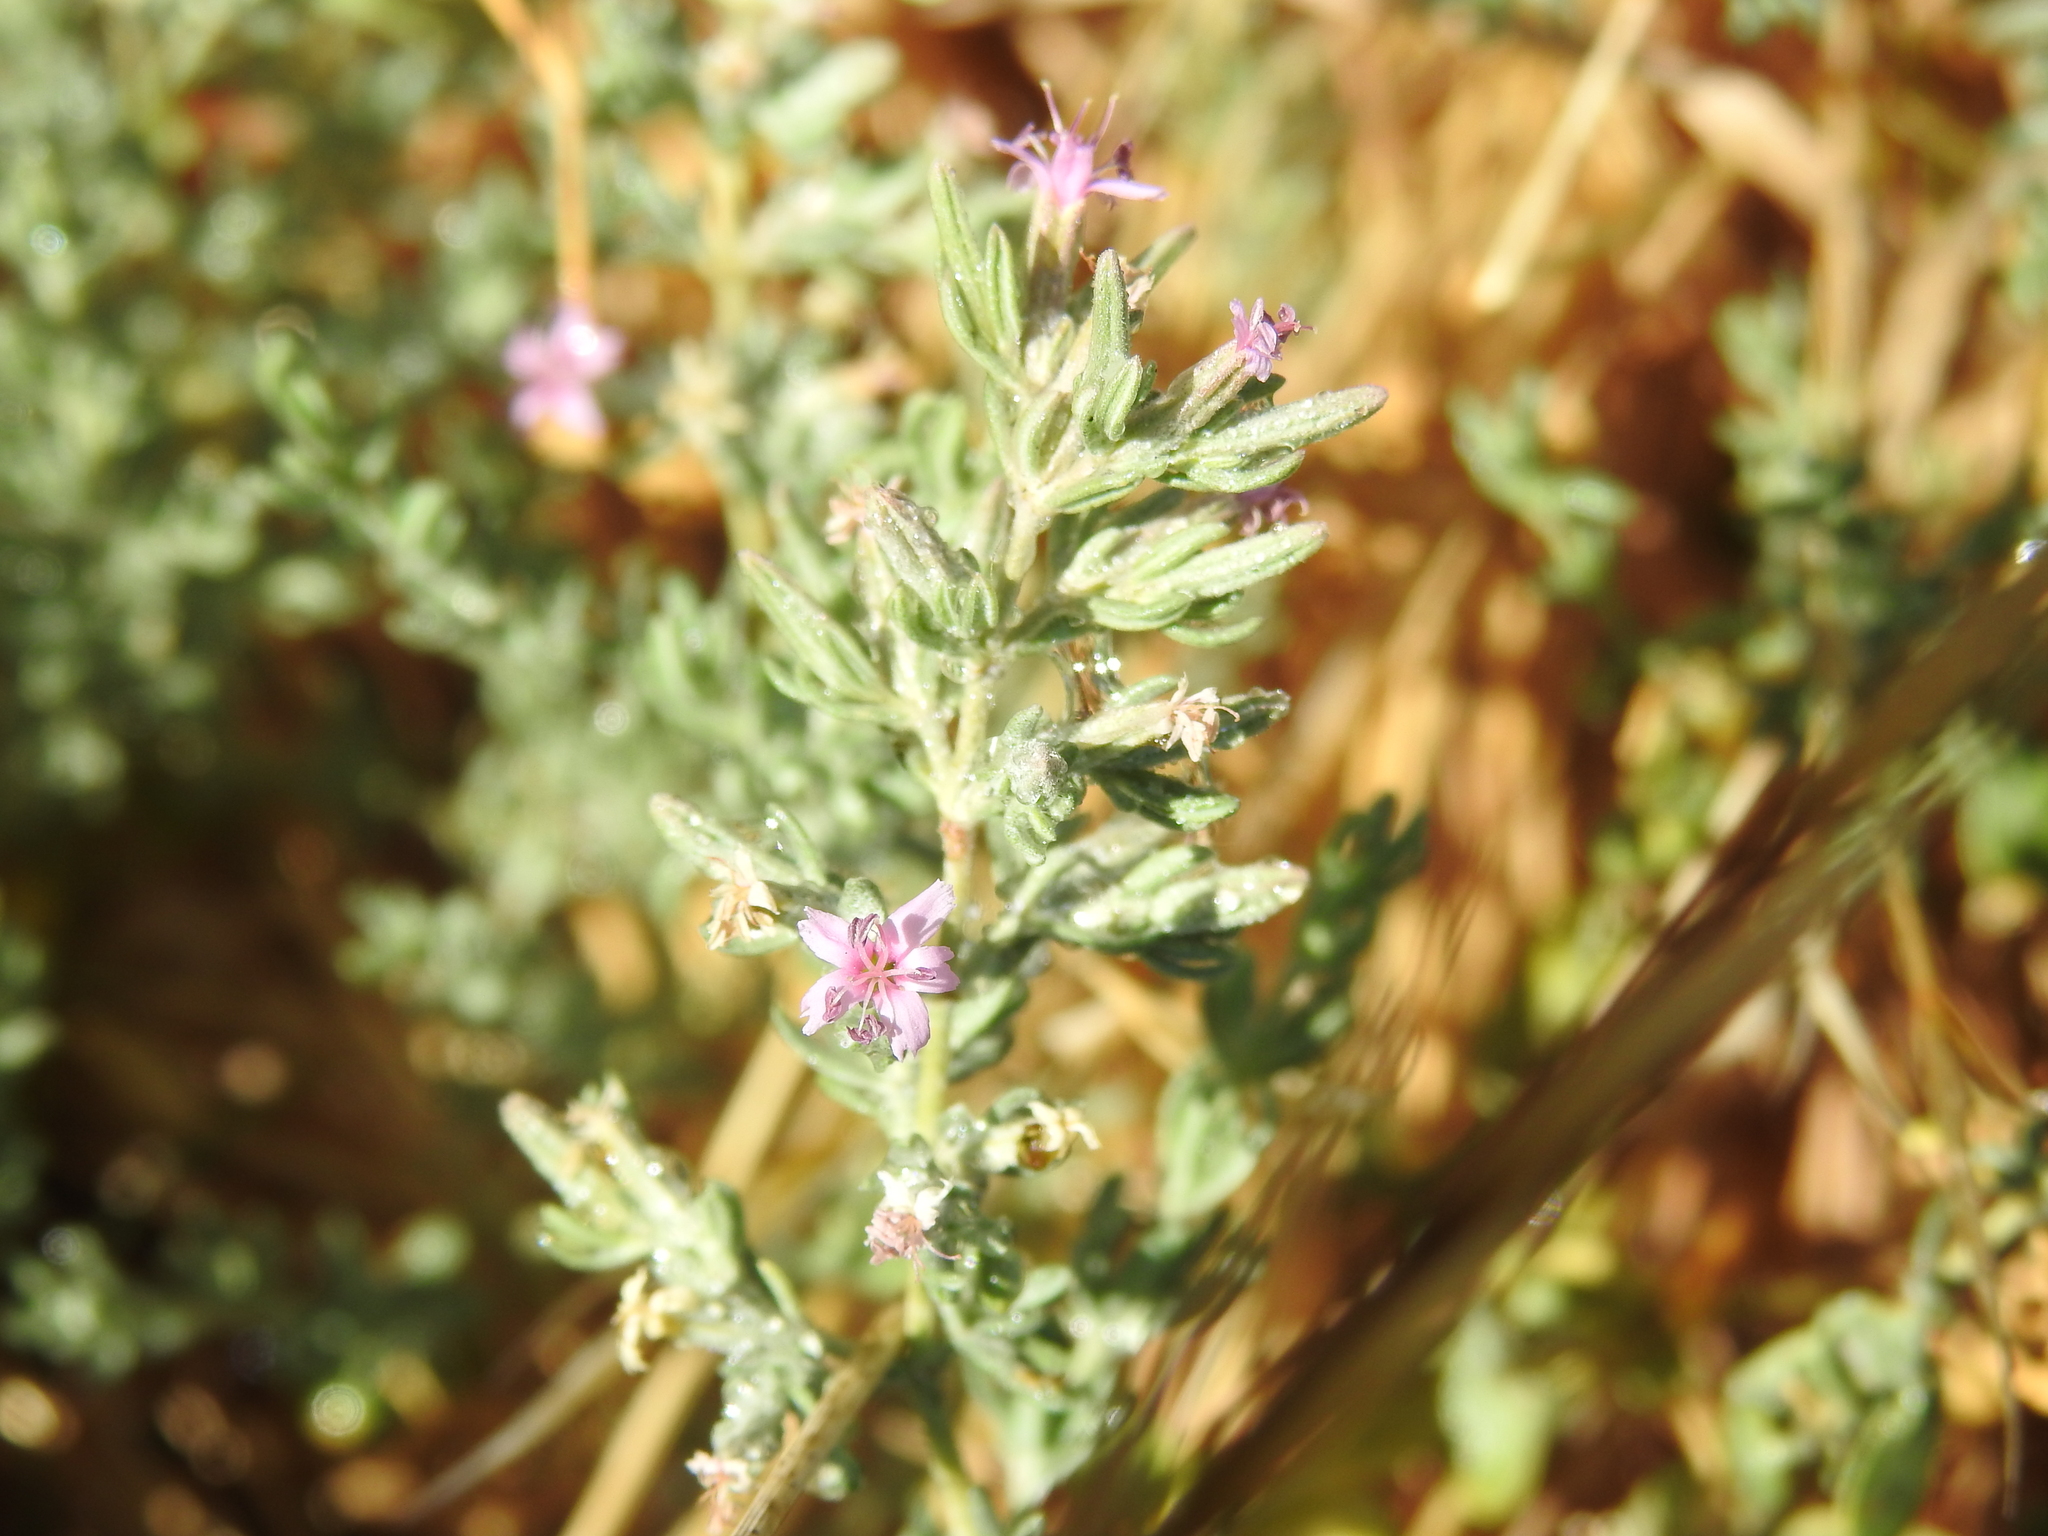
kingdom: Plantae
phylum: Tracheophyta
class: Magnoliopsida
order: Caryophyllales
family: Frankeniaceae
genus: Frankenia
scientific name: Frankenia salina
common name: Alkali seaheath
